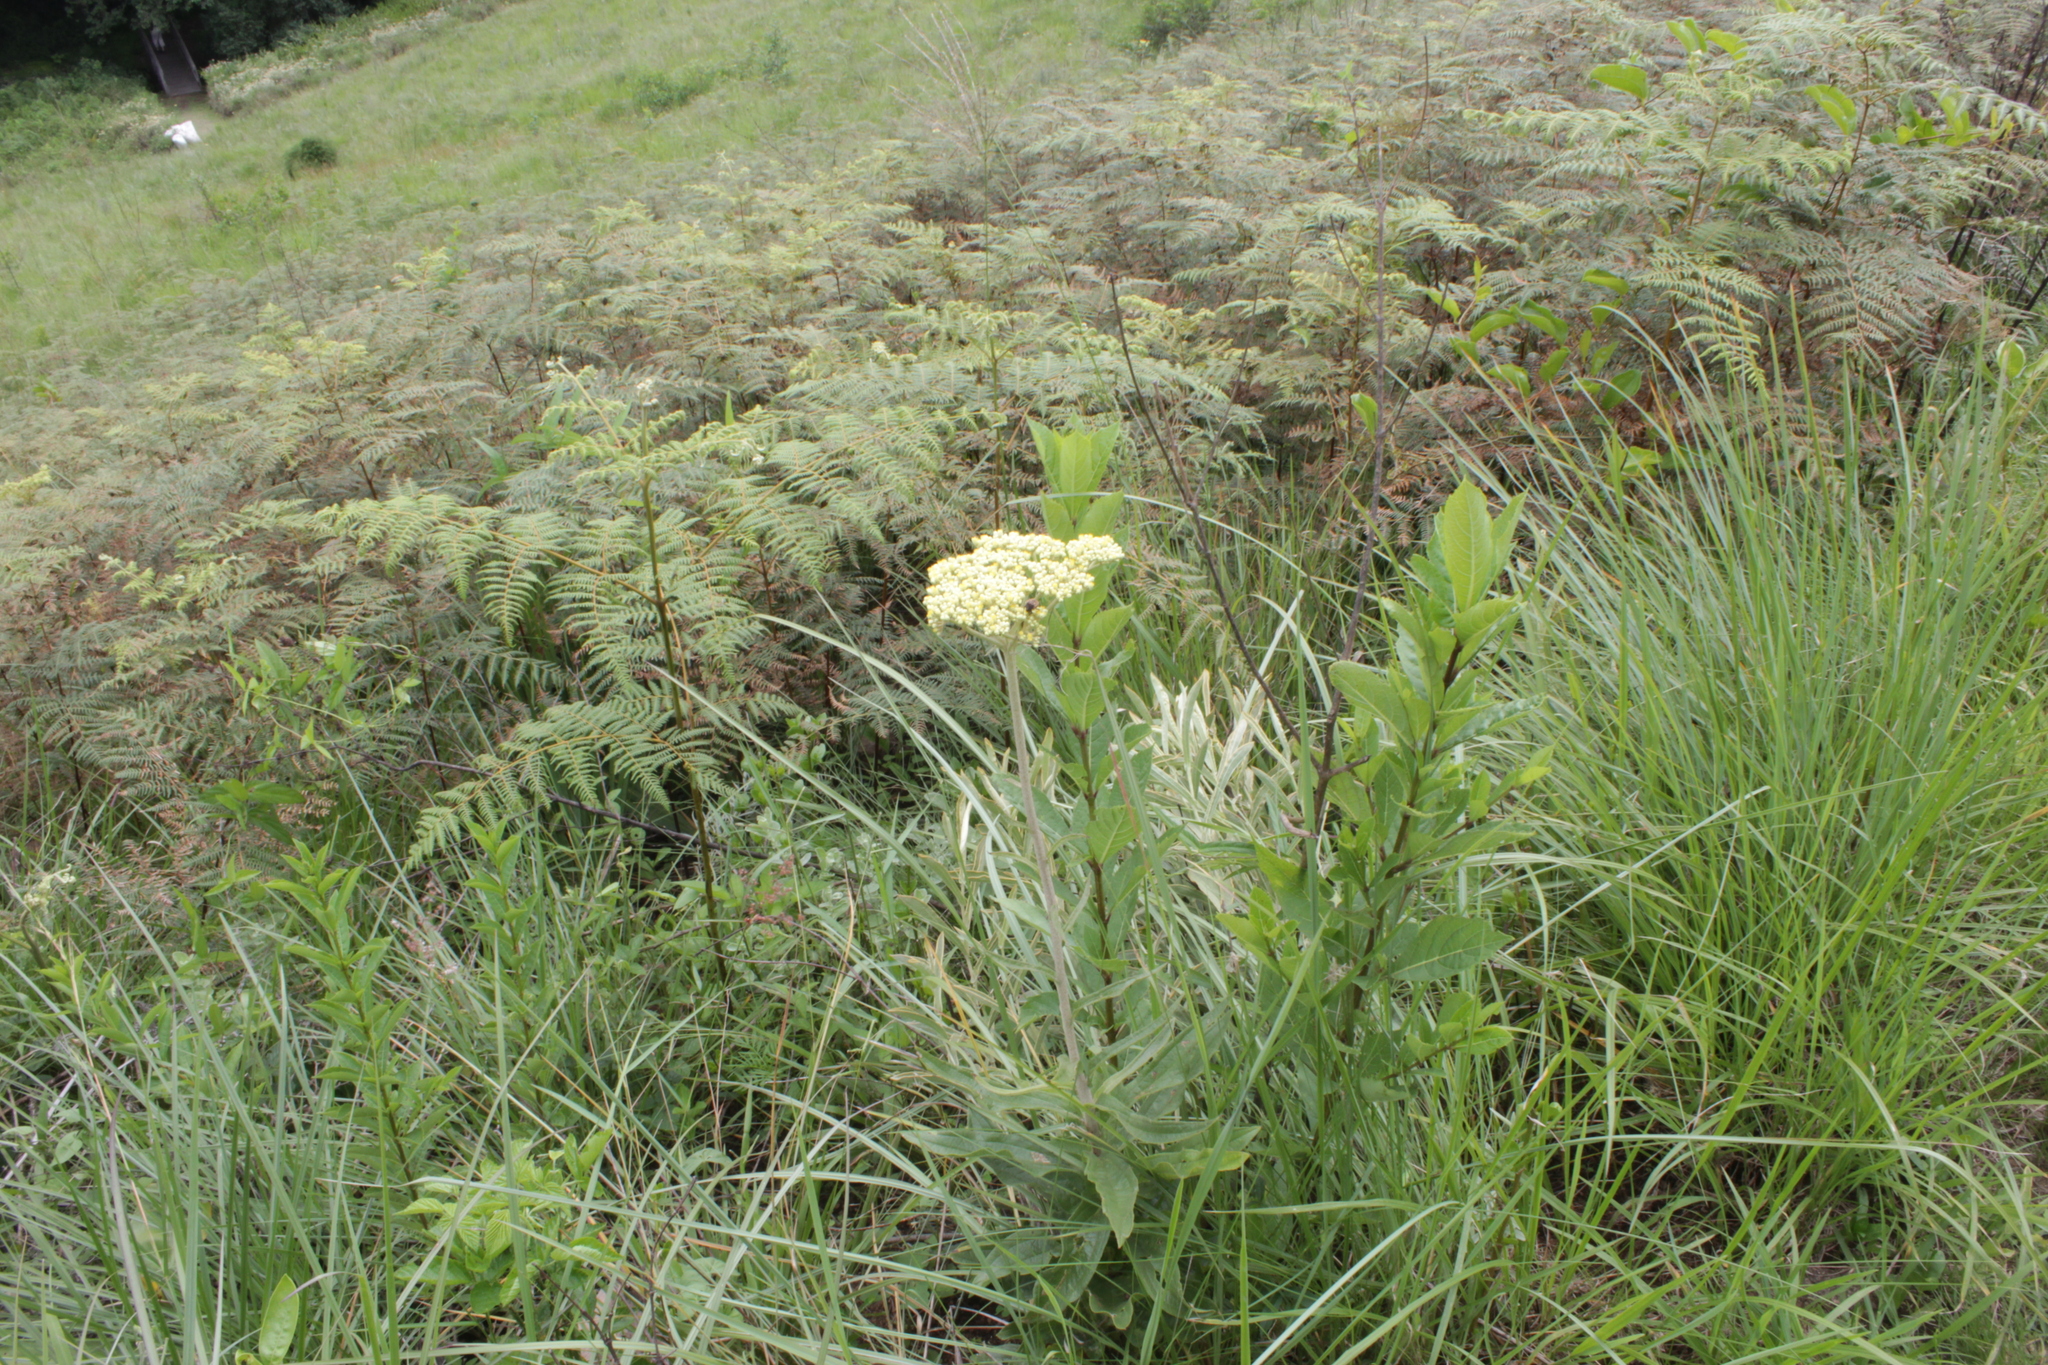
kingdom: Plantae
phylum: Tracheophyta
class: Magnoliopsida
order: Asterales
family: Asteraceae
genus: Helichrysum
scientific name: Helichrysum pallidum
